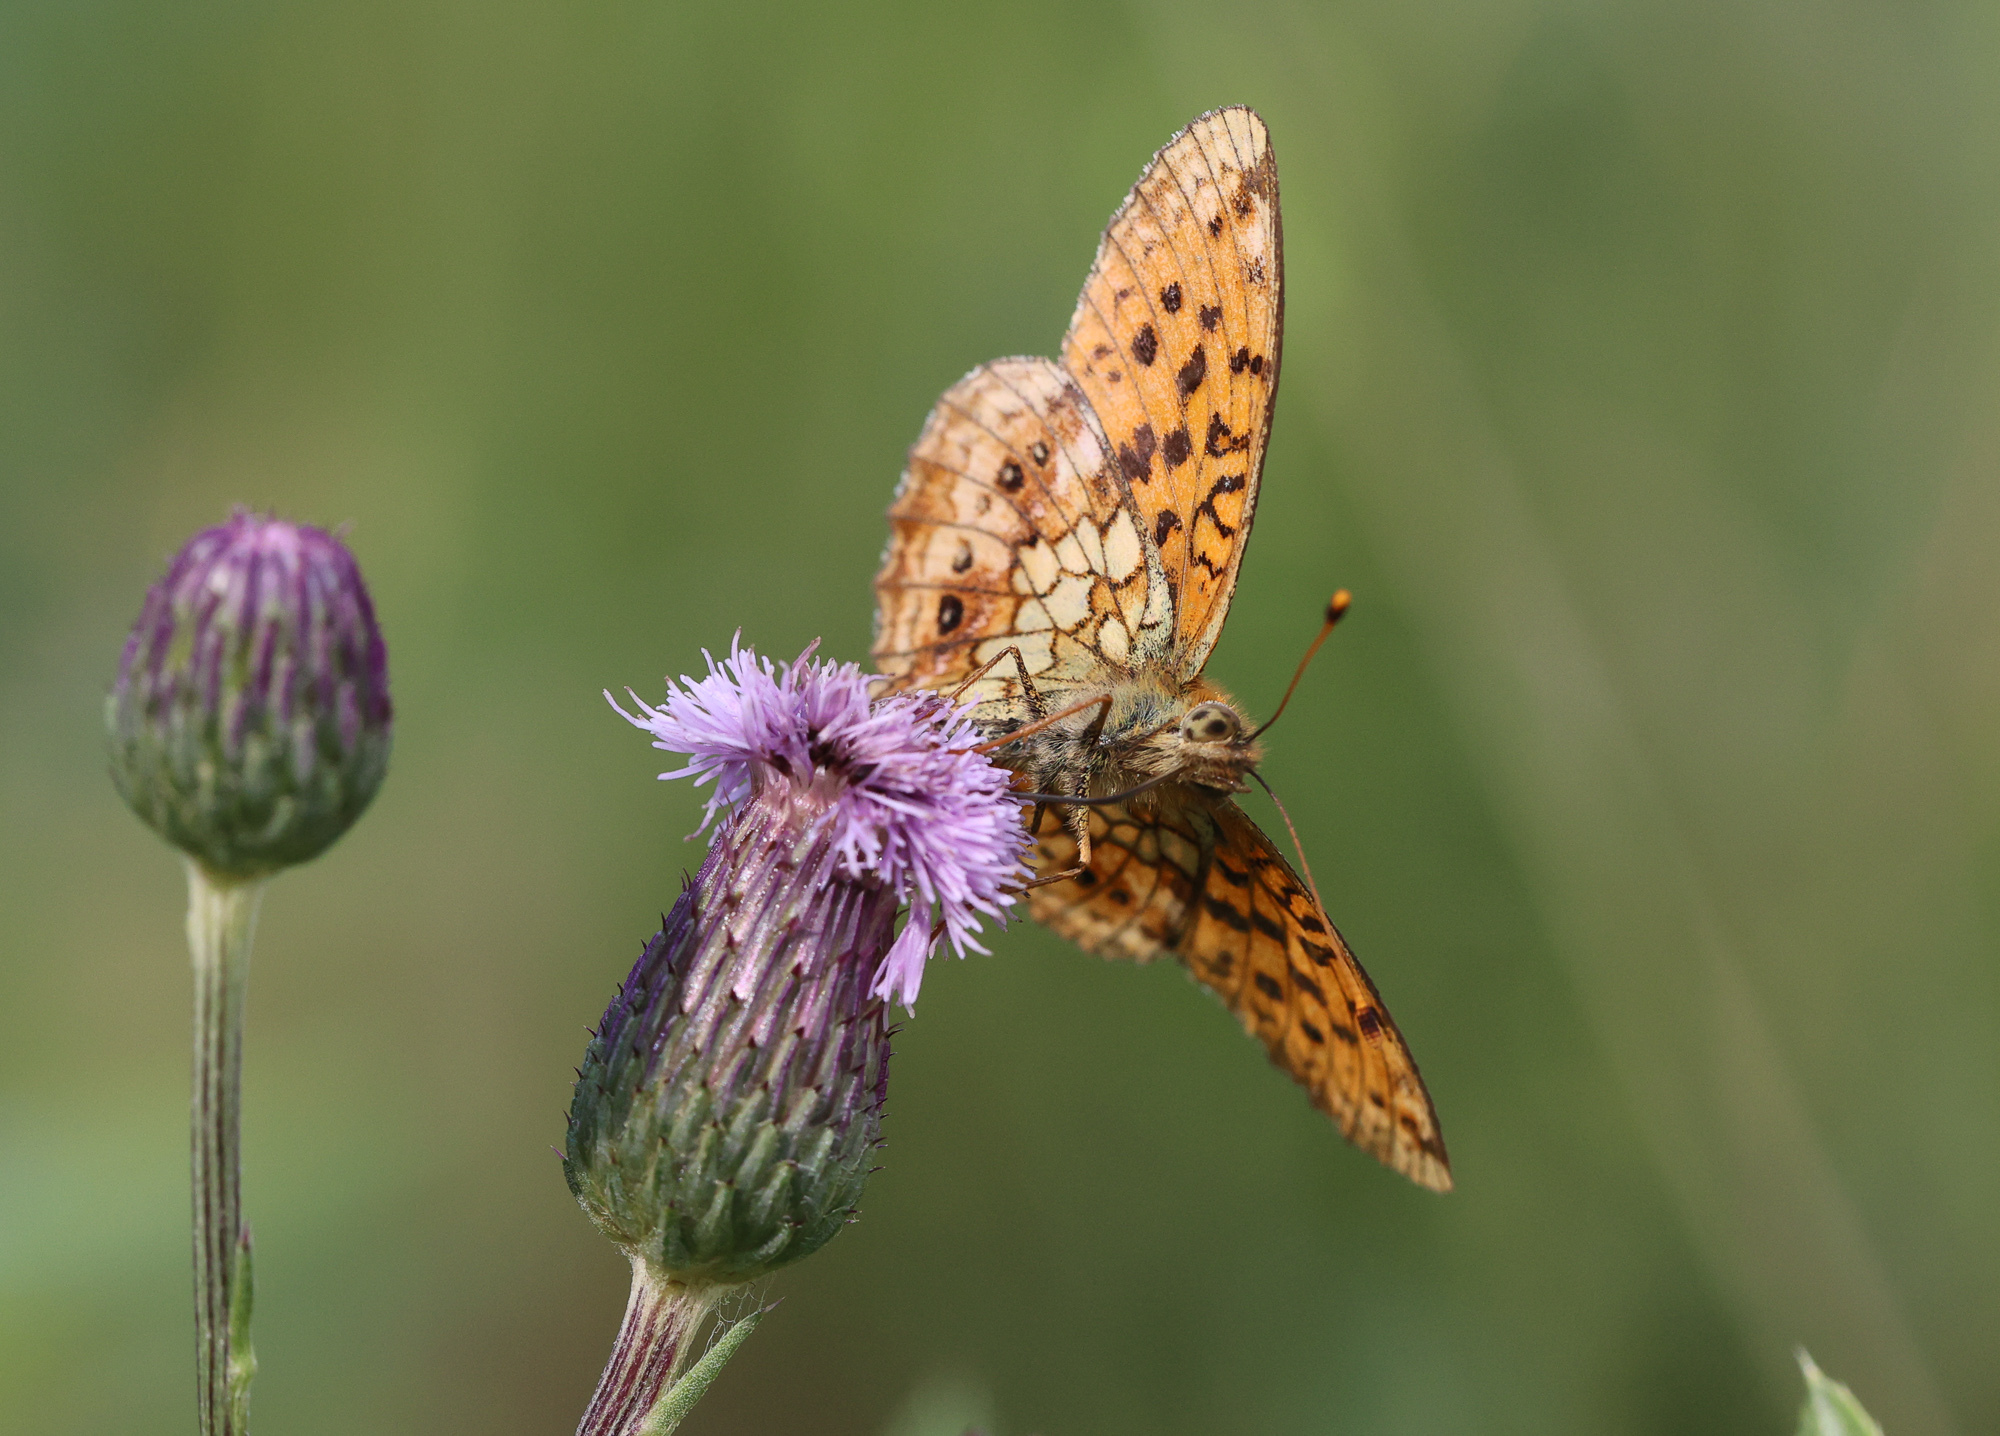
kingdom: Animalia
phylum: Arthropoda
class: Insecta
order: Lepidoptera
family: Nymphalidae
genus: Brenthis
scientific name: Brenthis ino
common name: Lesser marbled fritillary
